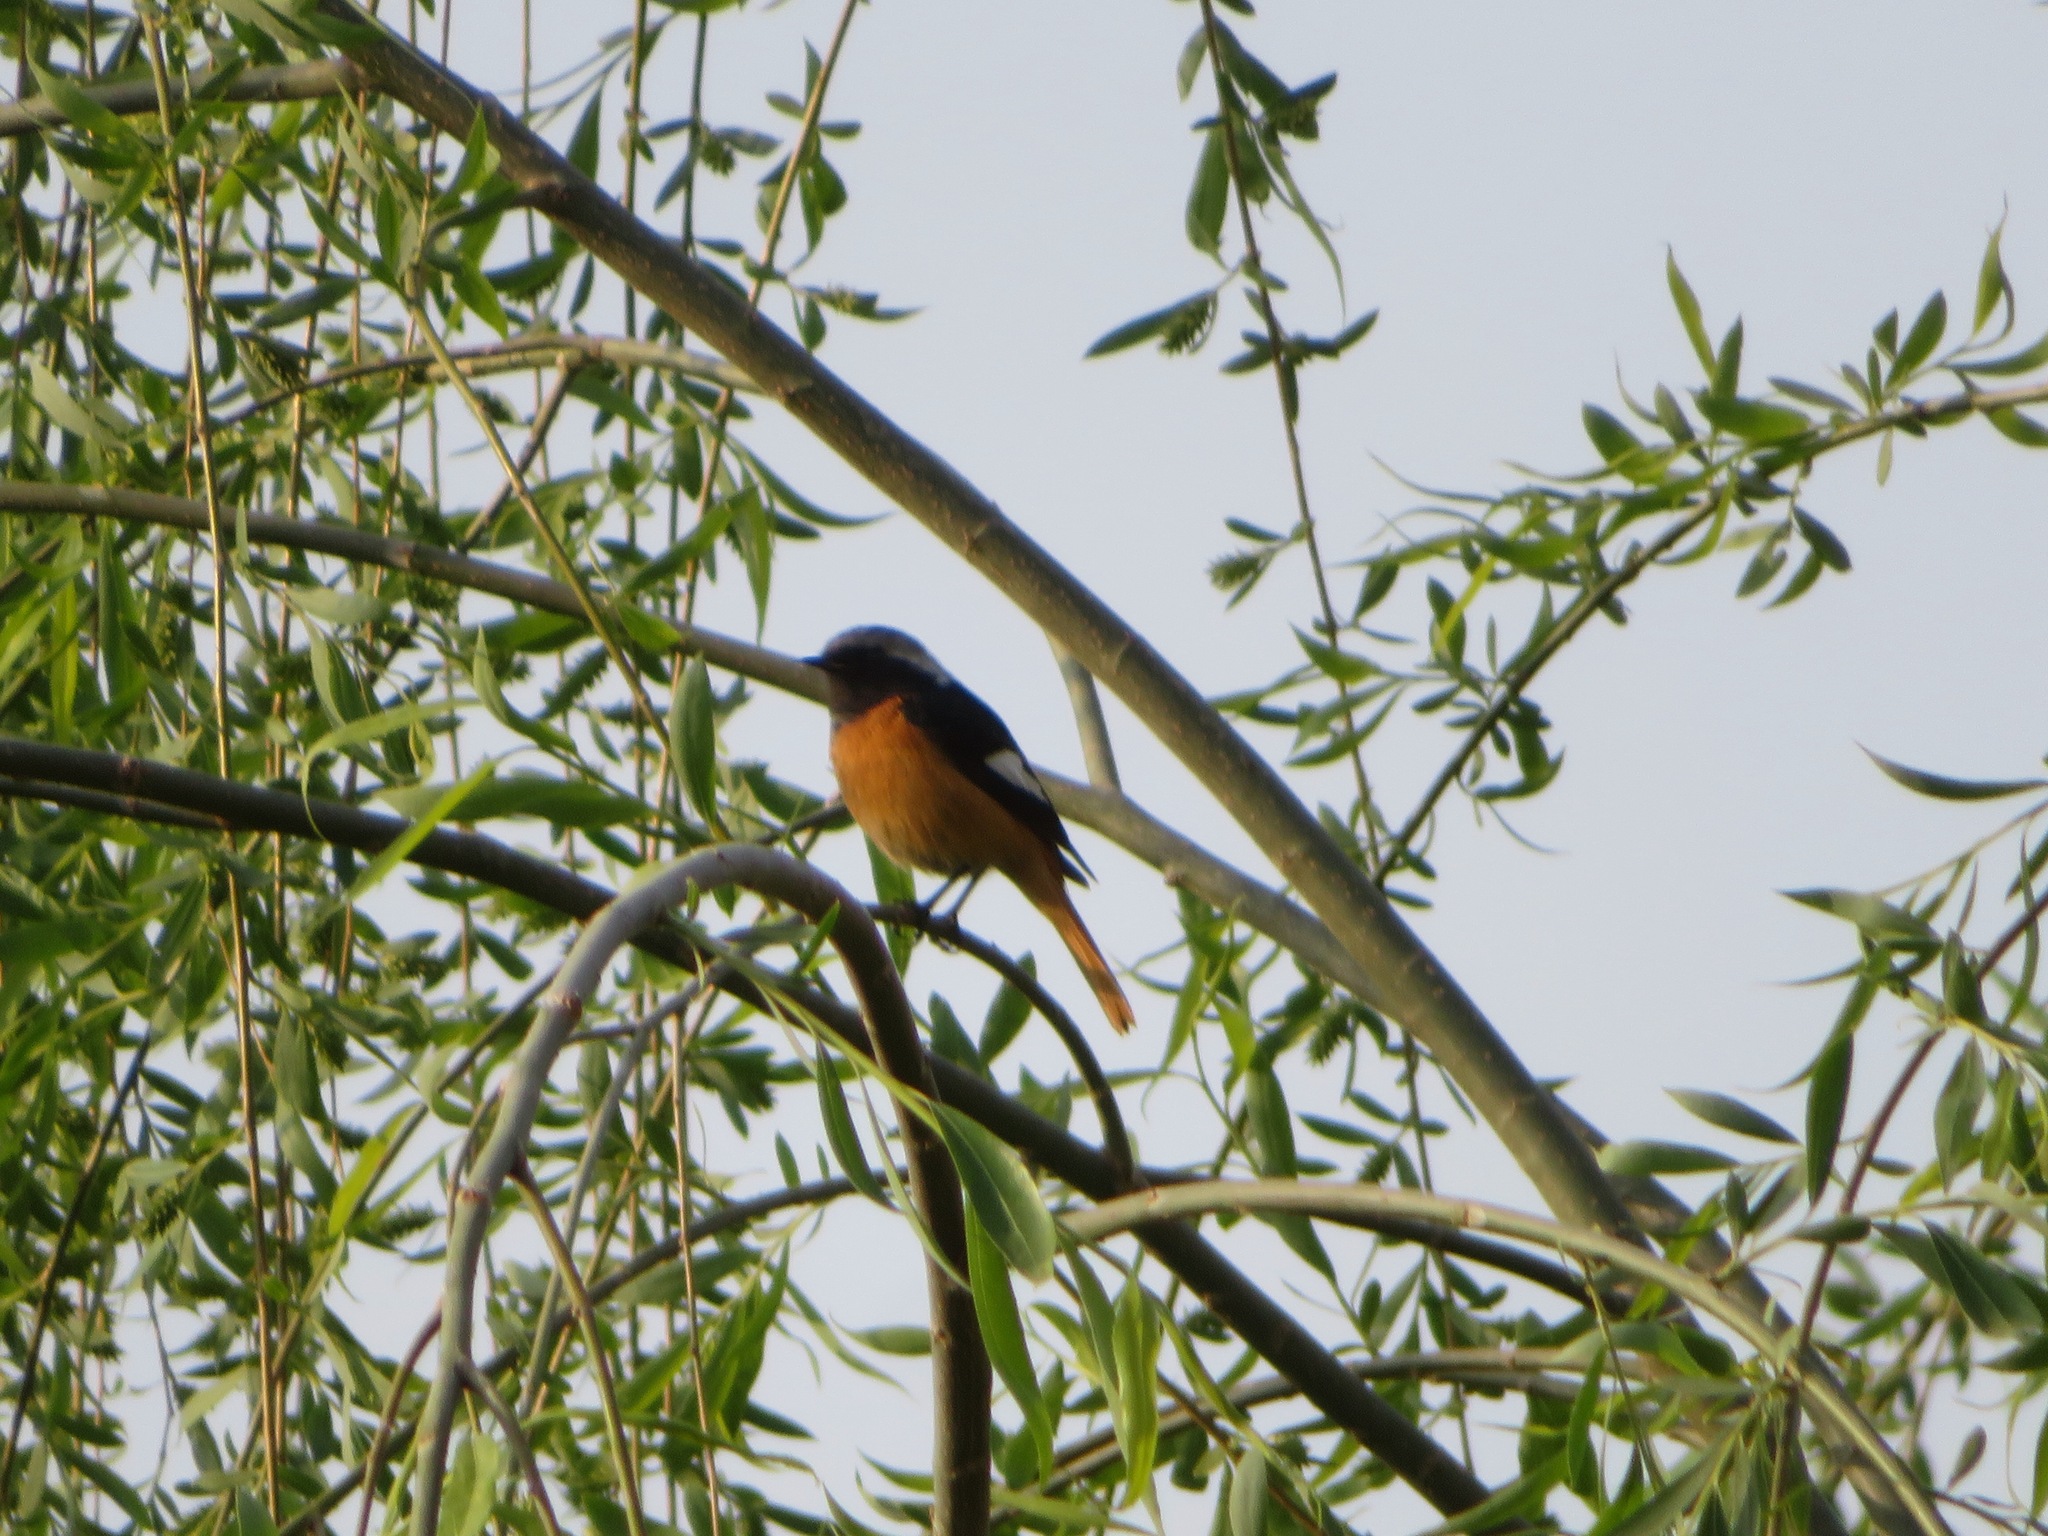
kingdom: Animalia
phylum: Chordata
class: Aves
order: Passeriformes
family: Muscicapidae
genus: Phoenicurus
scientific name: Phoenicurus auroreus
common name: Daurian redstart
